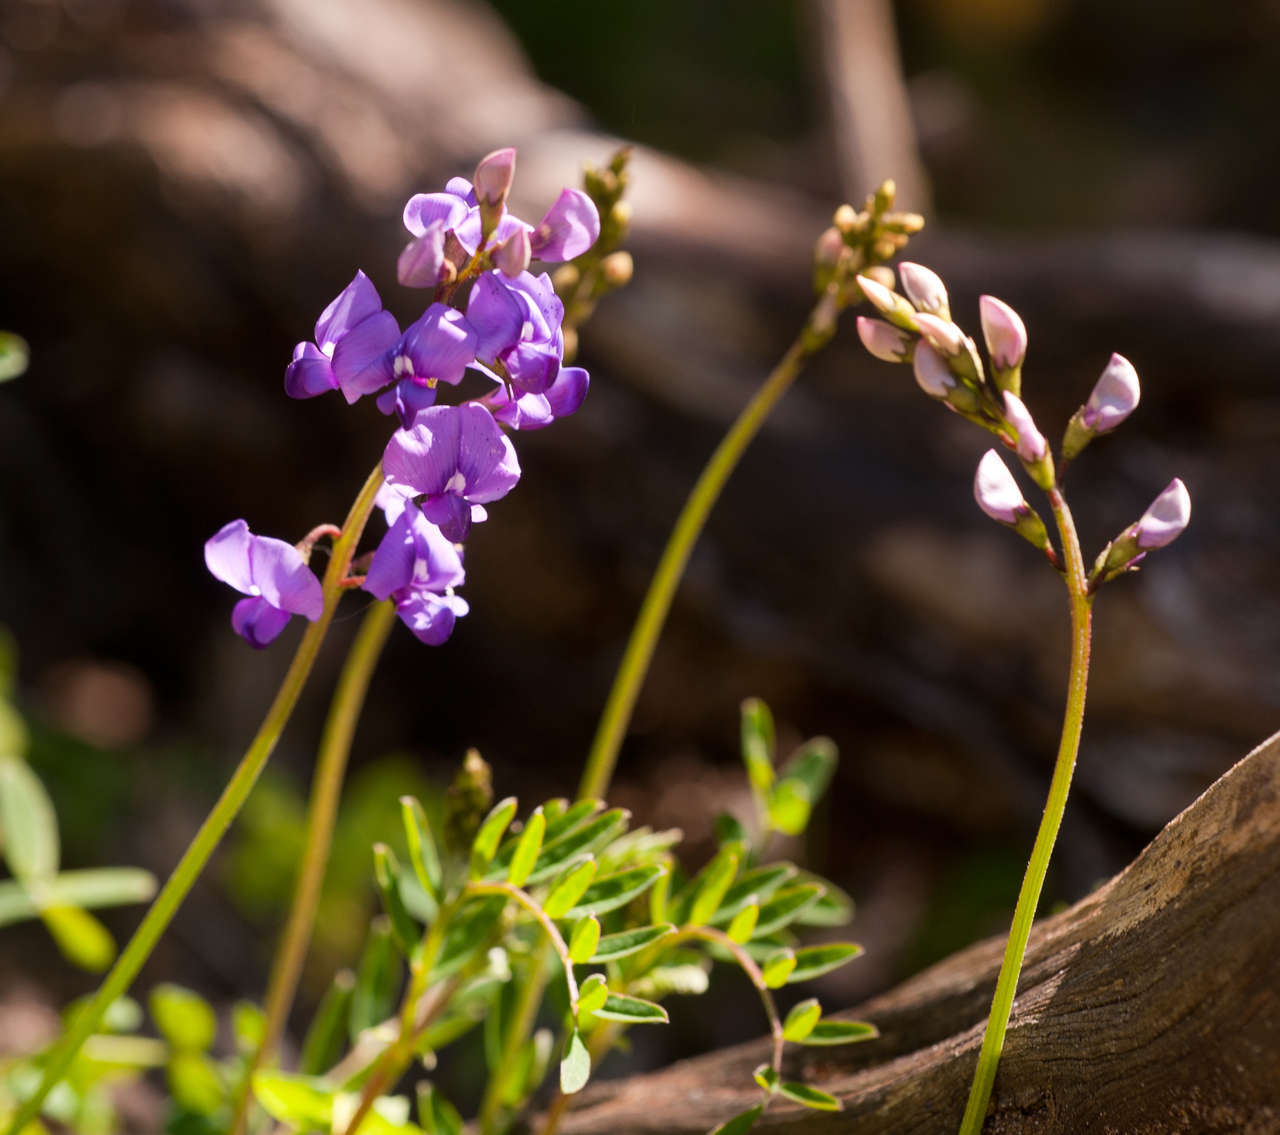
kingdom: Plantae
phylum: Tracheophyta
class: Magnoliopsida
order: Fabales
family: Fabaceae
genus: Swainsona
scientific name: Swainsona lessertiifolia
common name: Bog-pea
